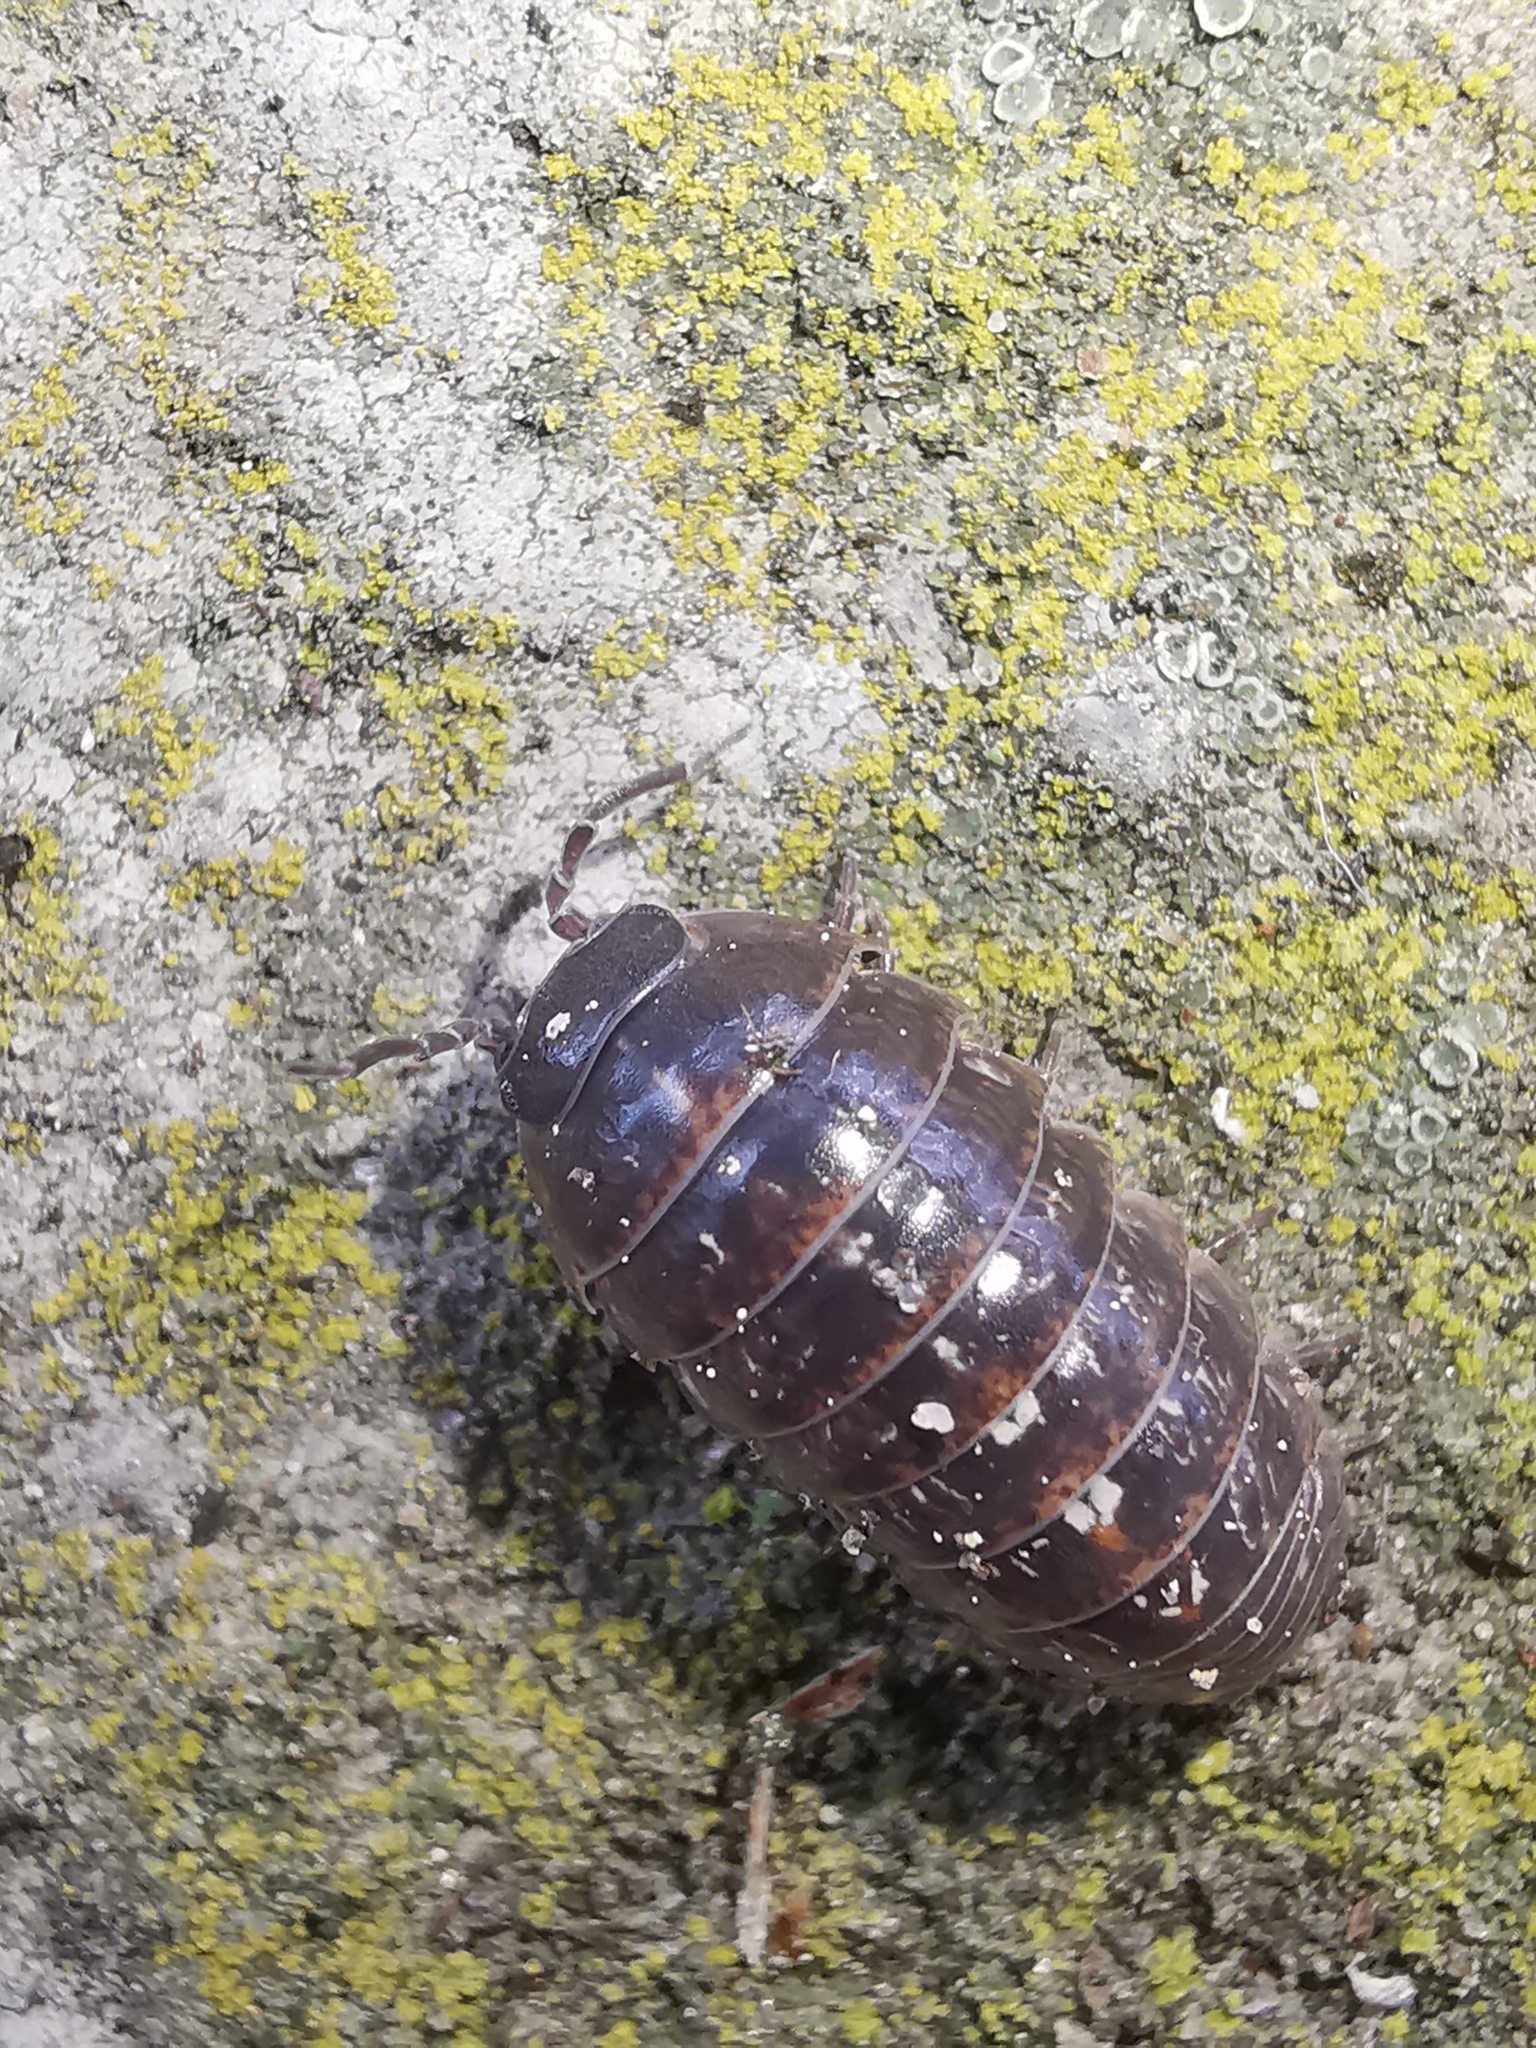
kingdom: Animalia
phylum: Arthropoda
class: Malacostraca
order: Isopoda
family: Armadillidiidae
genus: Armadillidium
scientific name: Armadillidium vulgare
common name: Common pill woodlouse
